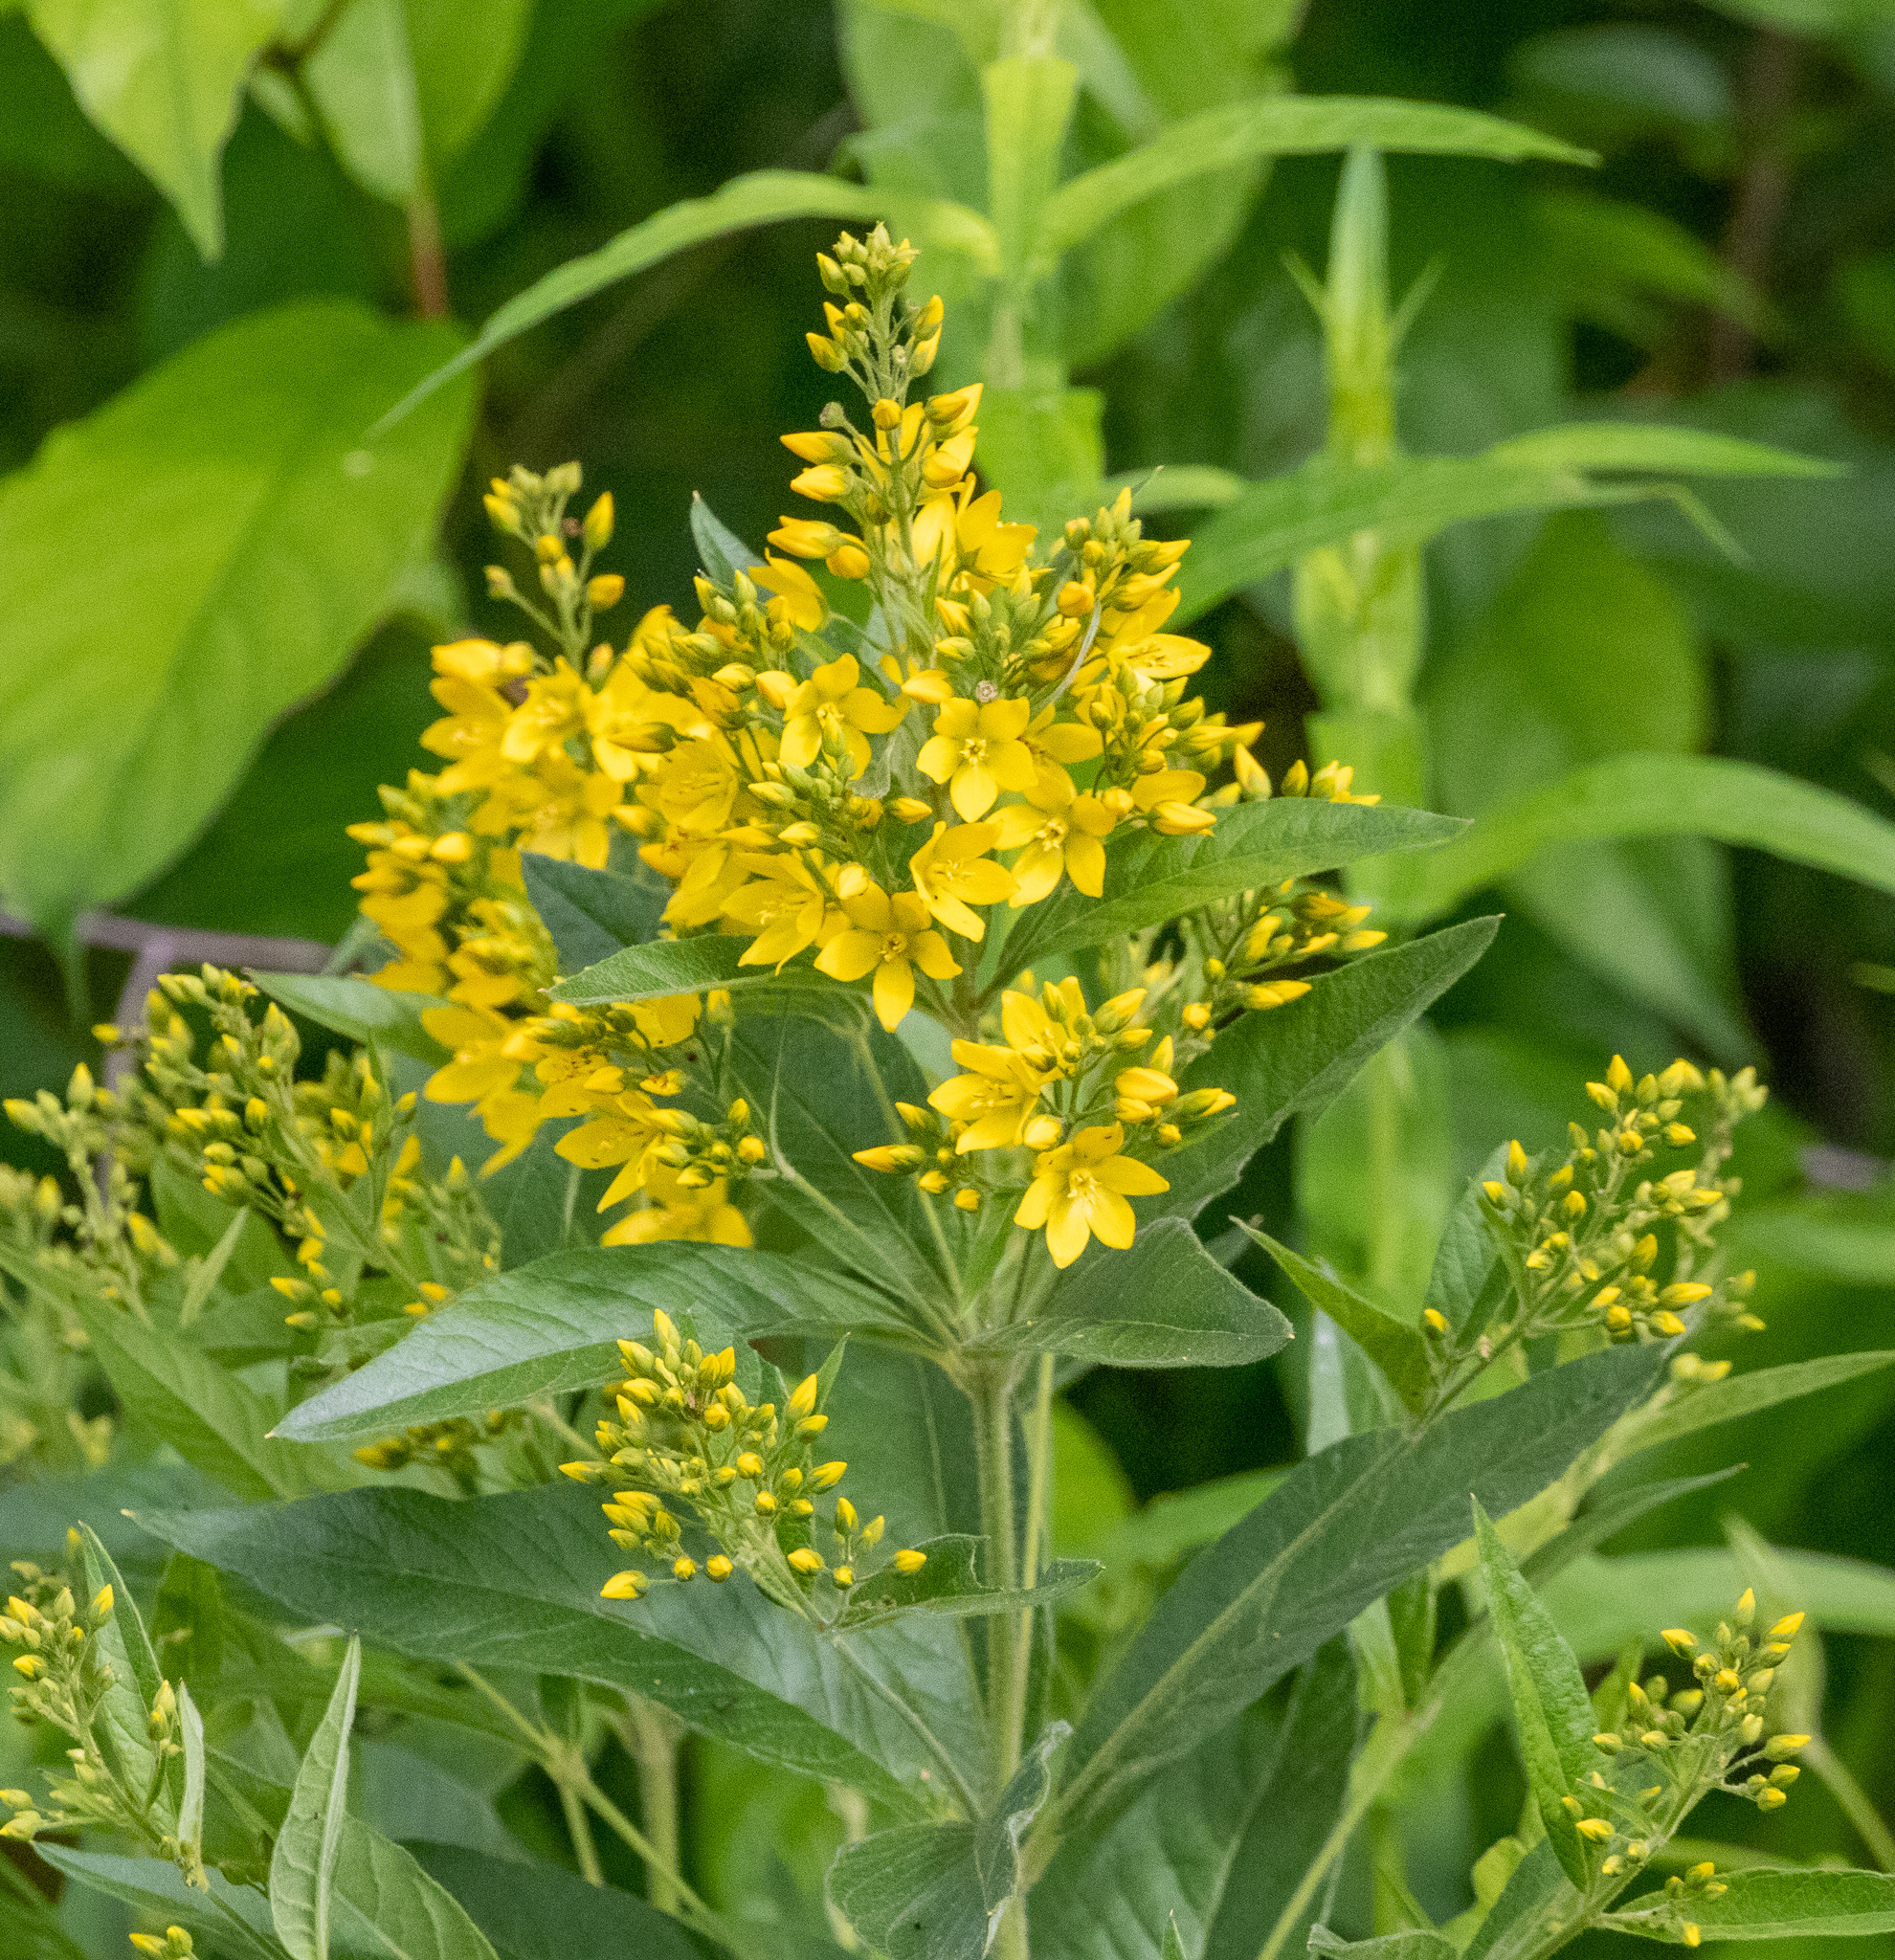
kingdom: Plantae
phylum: Tracheophyta
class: Magnoliopsida
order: Ericales
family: Primulaceae
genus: Lysimachia
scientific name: Lysimachia vulgaris
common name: Yellow loosestrife
